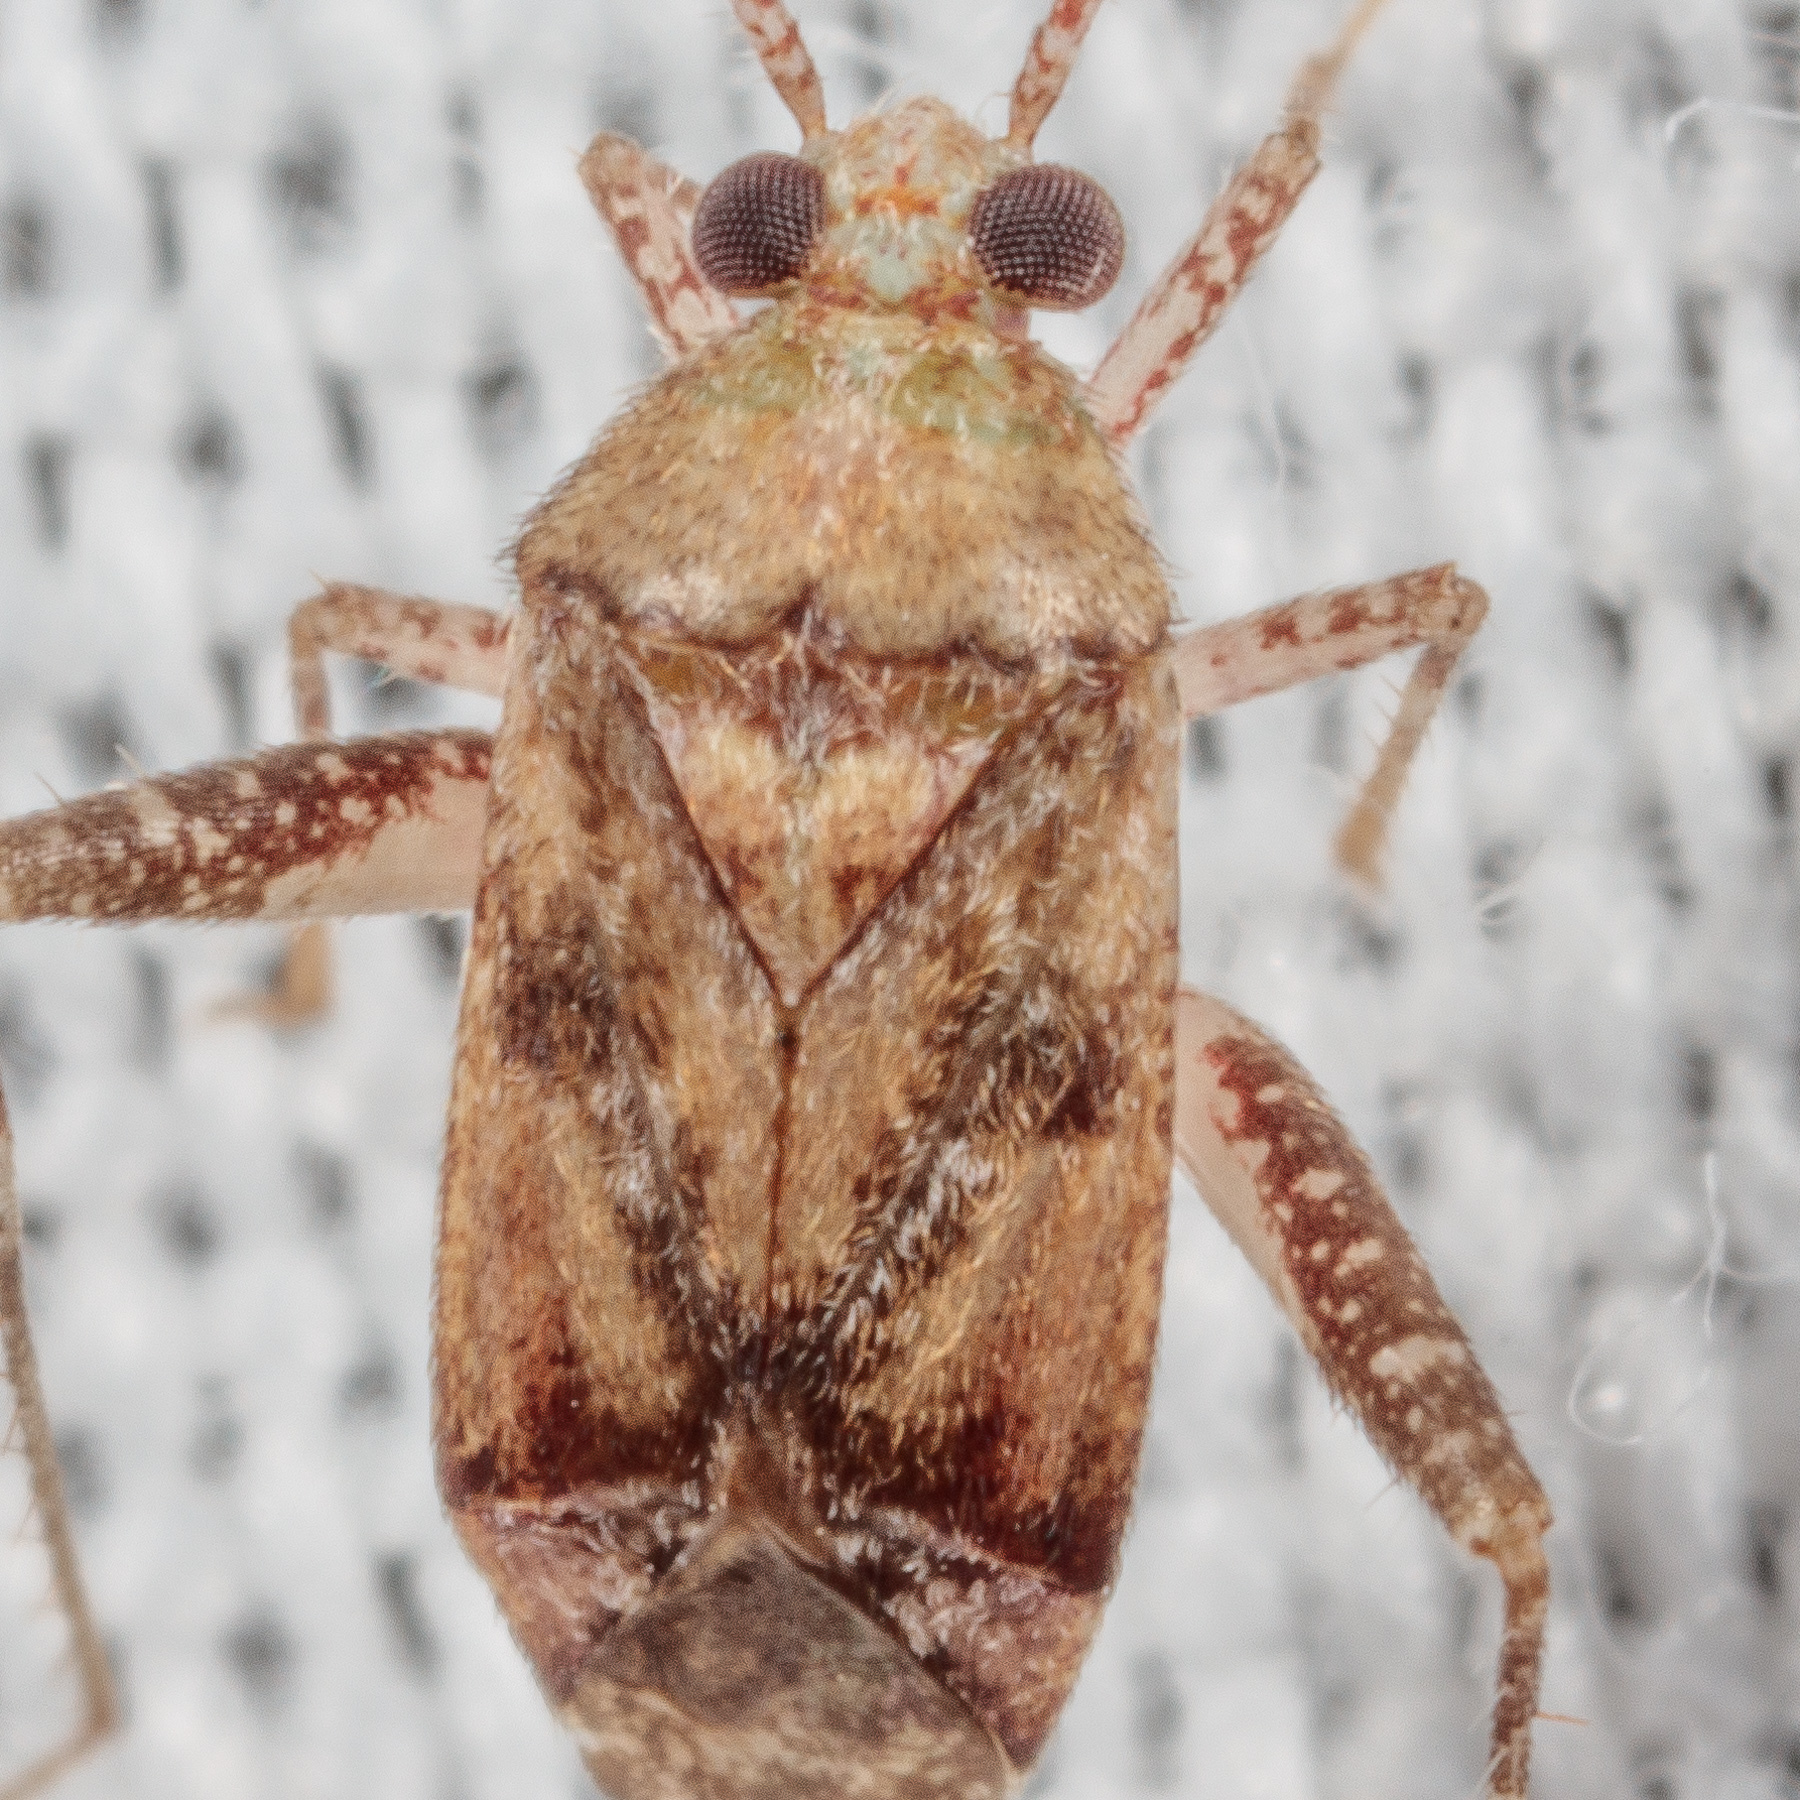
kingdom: Animalia
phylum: Arthropoda
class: Insecta
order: Hemiptera
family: Miridae
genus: Phytocoris
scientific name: Phytocoris breviusculus
